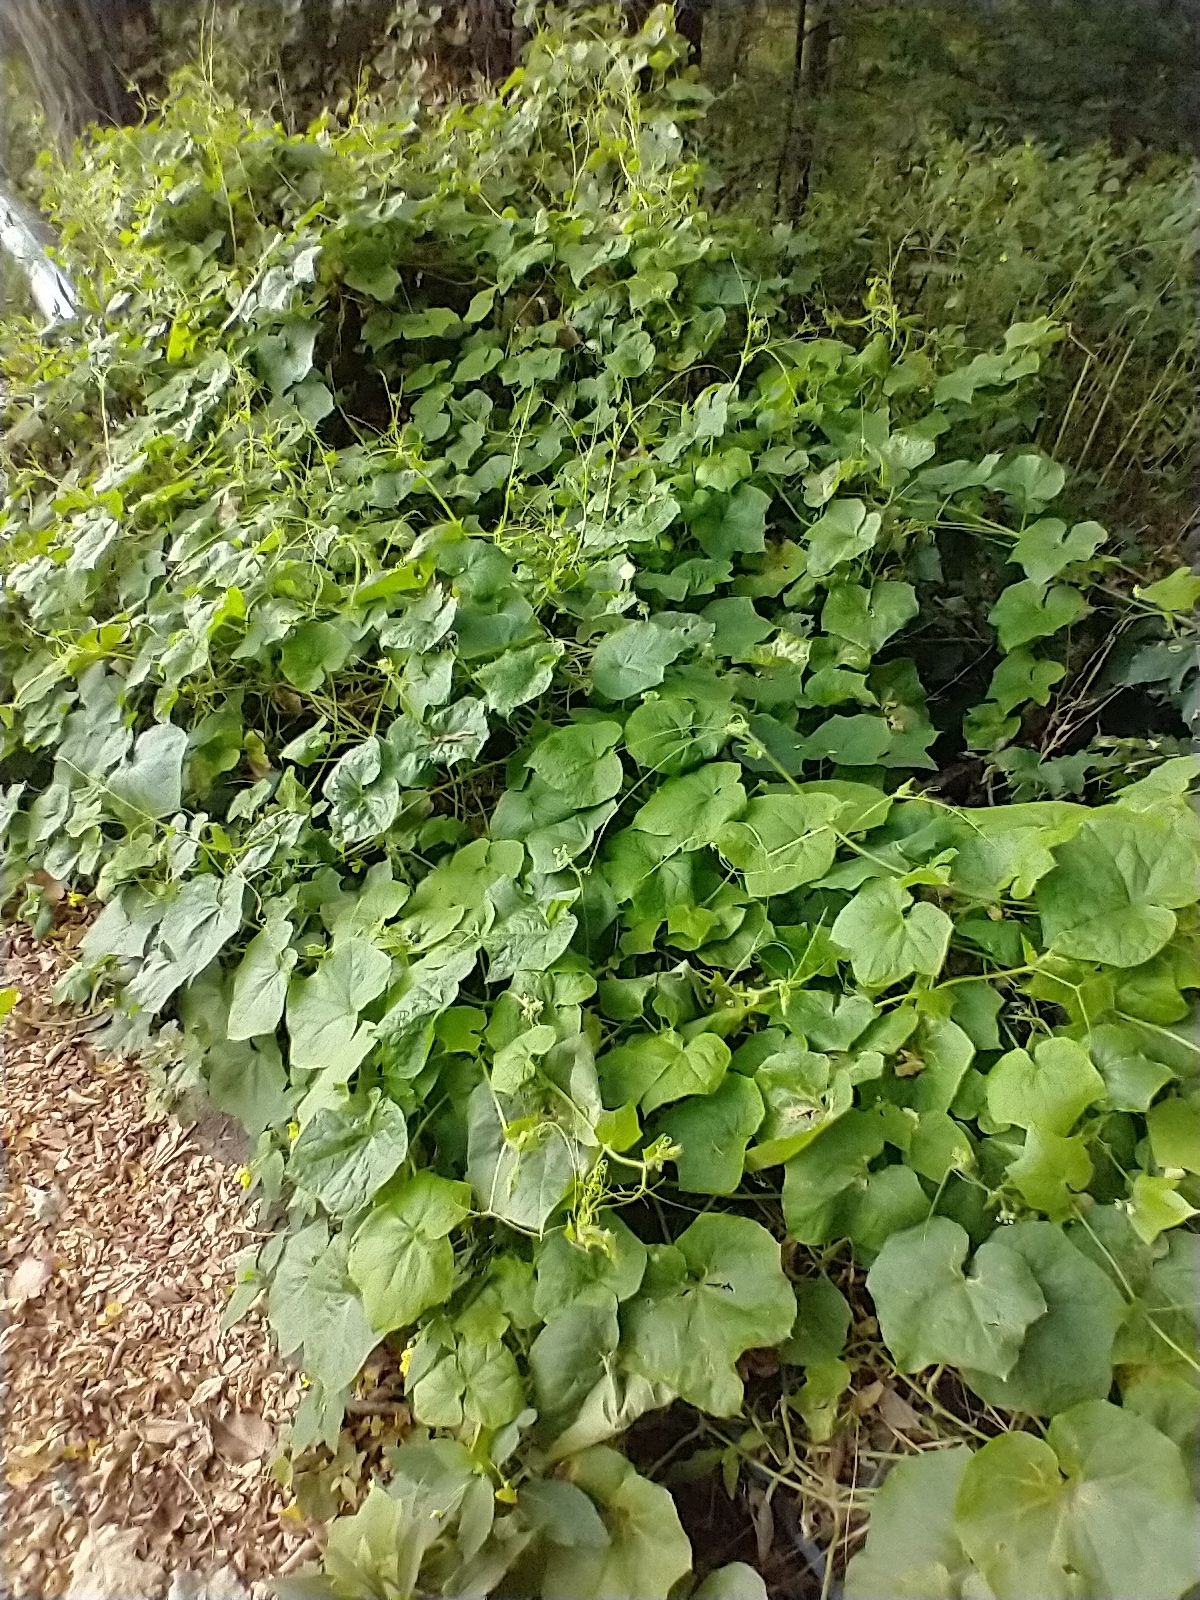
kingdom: Plantae
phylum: Tracheophyta
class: Magnoliopsida
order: Cucurbitales
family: Cucurbitaceae
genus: Sicyos
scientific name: Sicyos angulatus
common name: Angled burr cucumber
